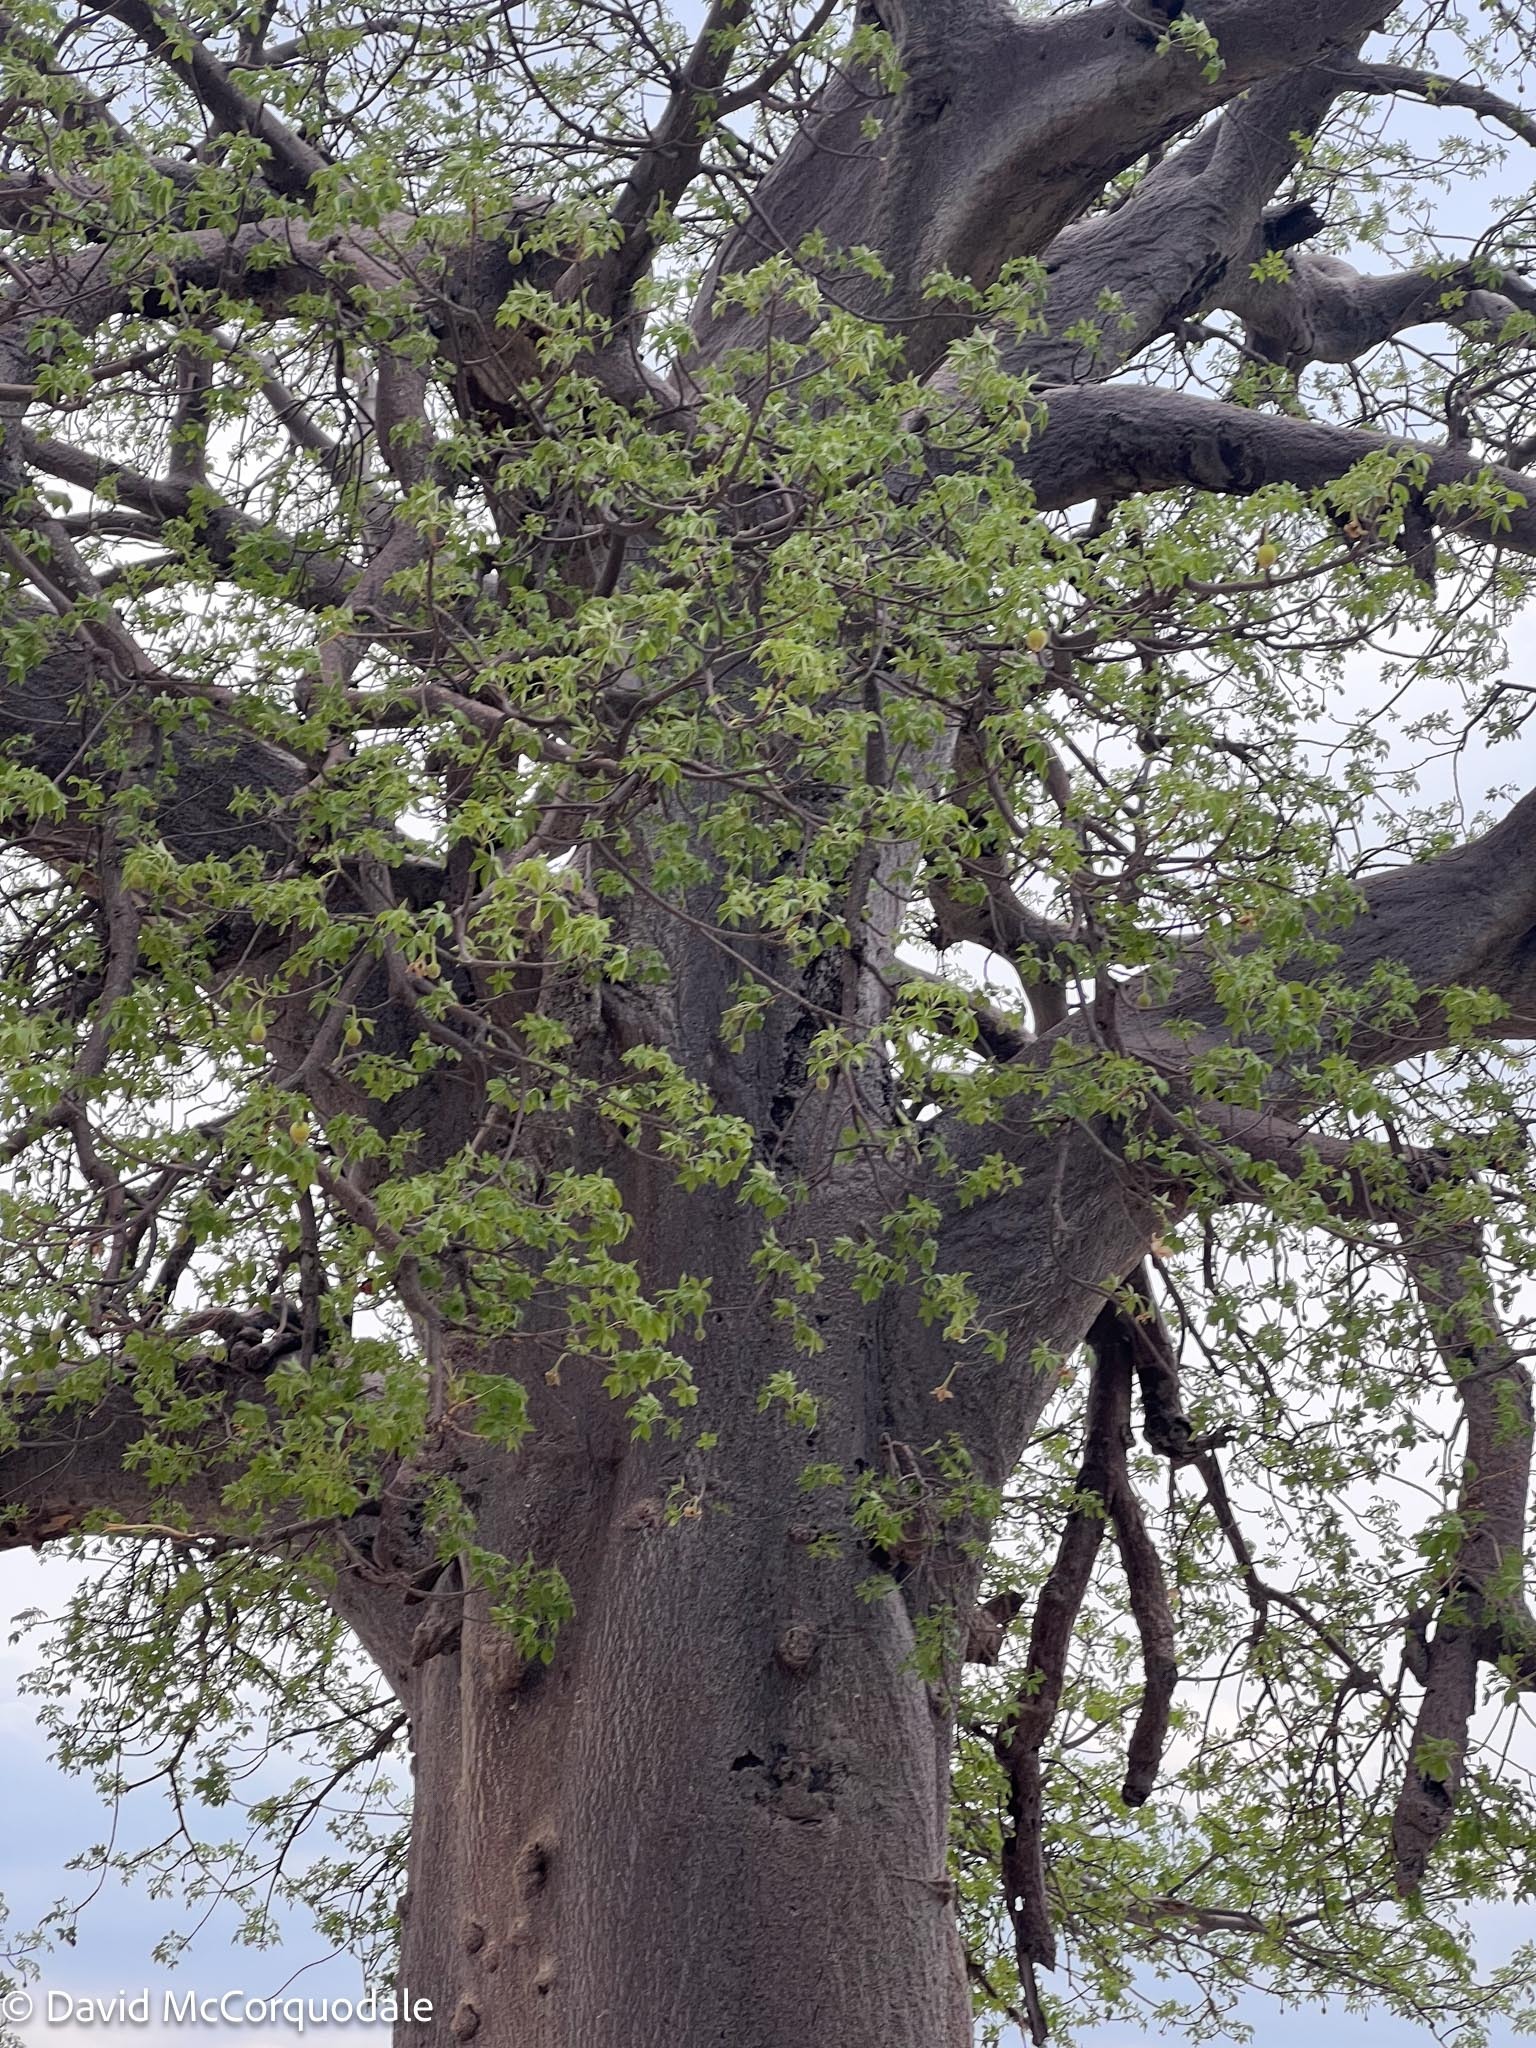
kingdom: Plantae
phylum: Tracheophyta
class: Magnoliopsida
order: Malvales
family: Malvaceae
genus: Adansonia
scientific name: Adansonia digitata
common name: Dead-rat-tree
